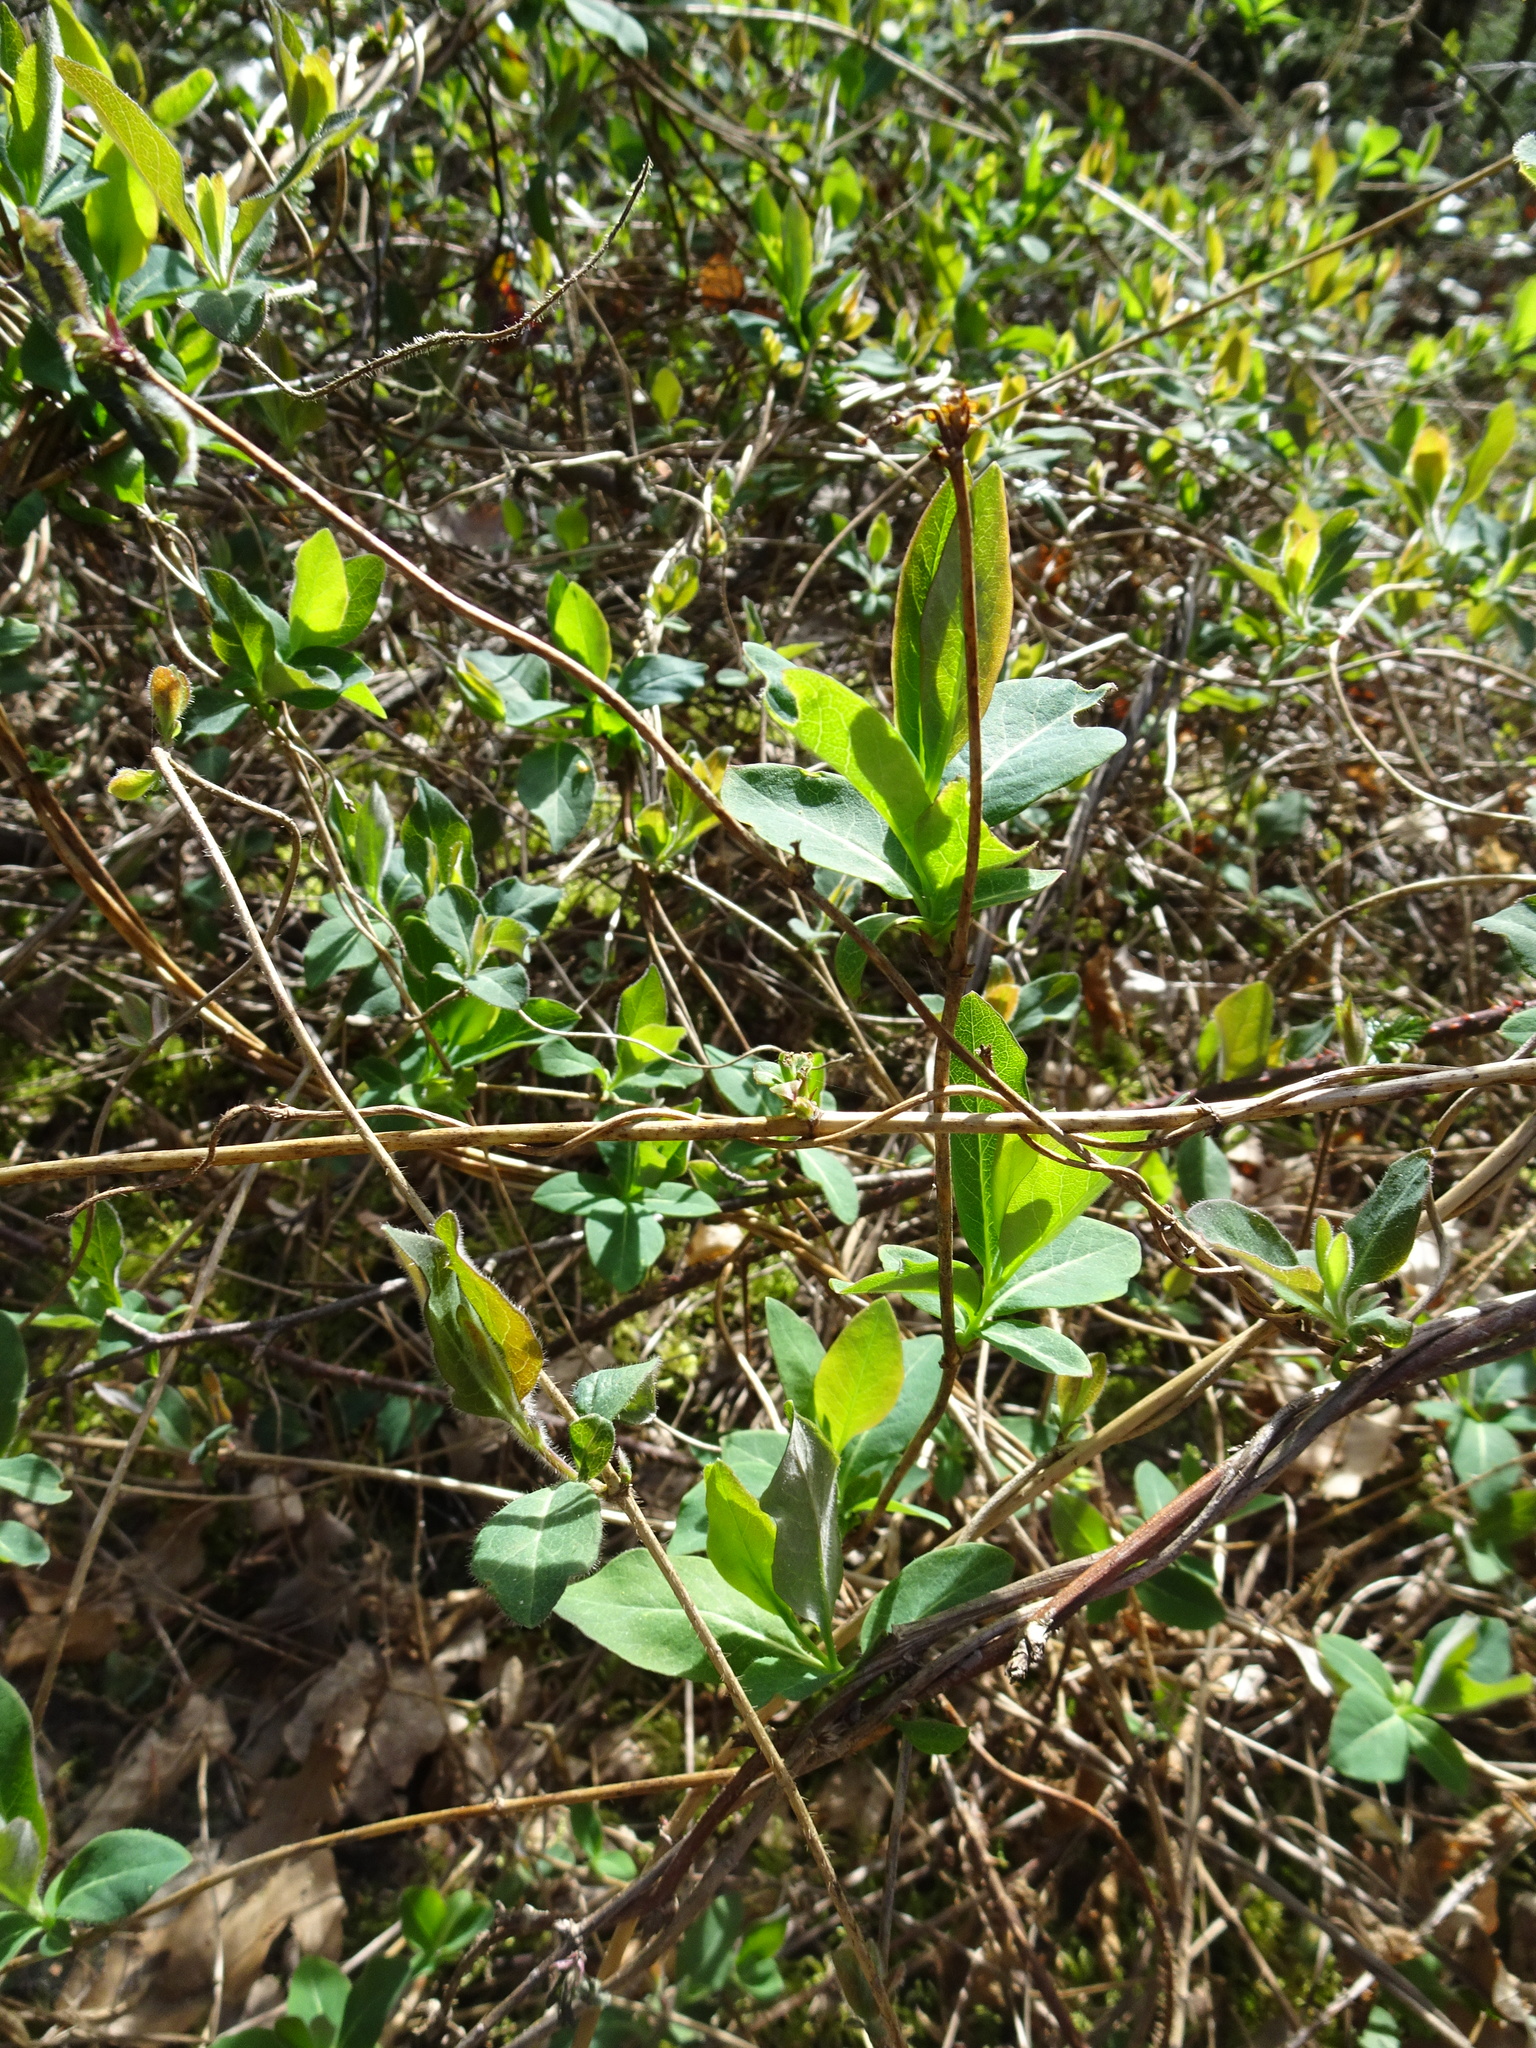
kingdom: Plantae
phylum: Tracheophyta
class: Magnoliopsida
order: Dipsacales
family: Caprifoliaceae
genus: Lonicera
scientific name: Lonicera periclymenum
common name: European honeysuckle
